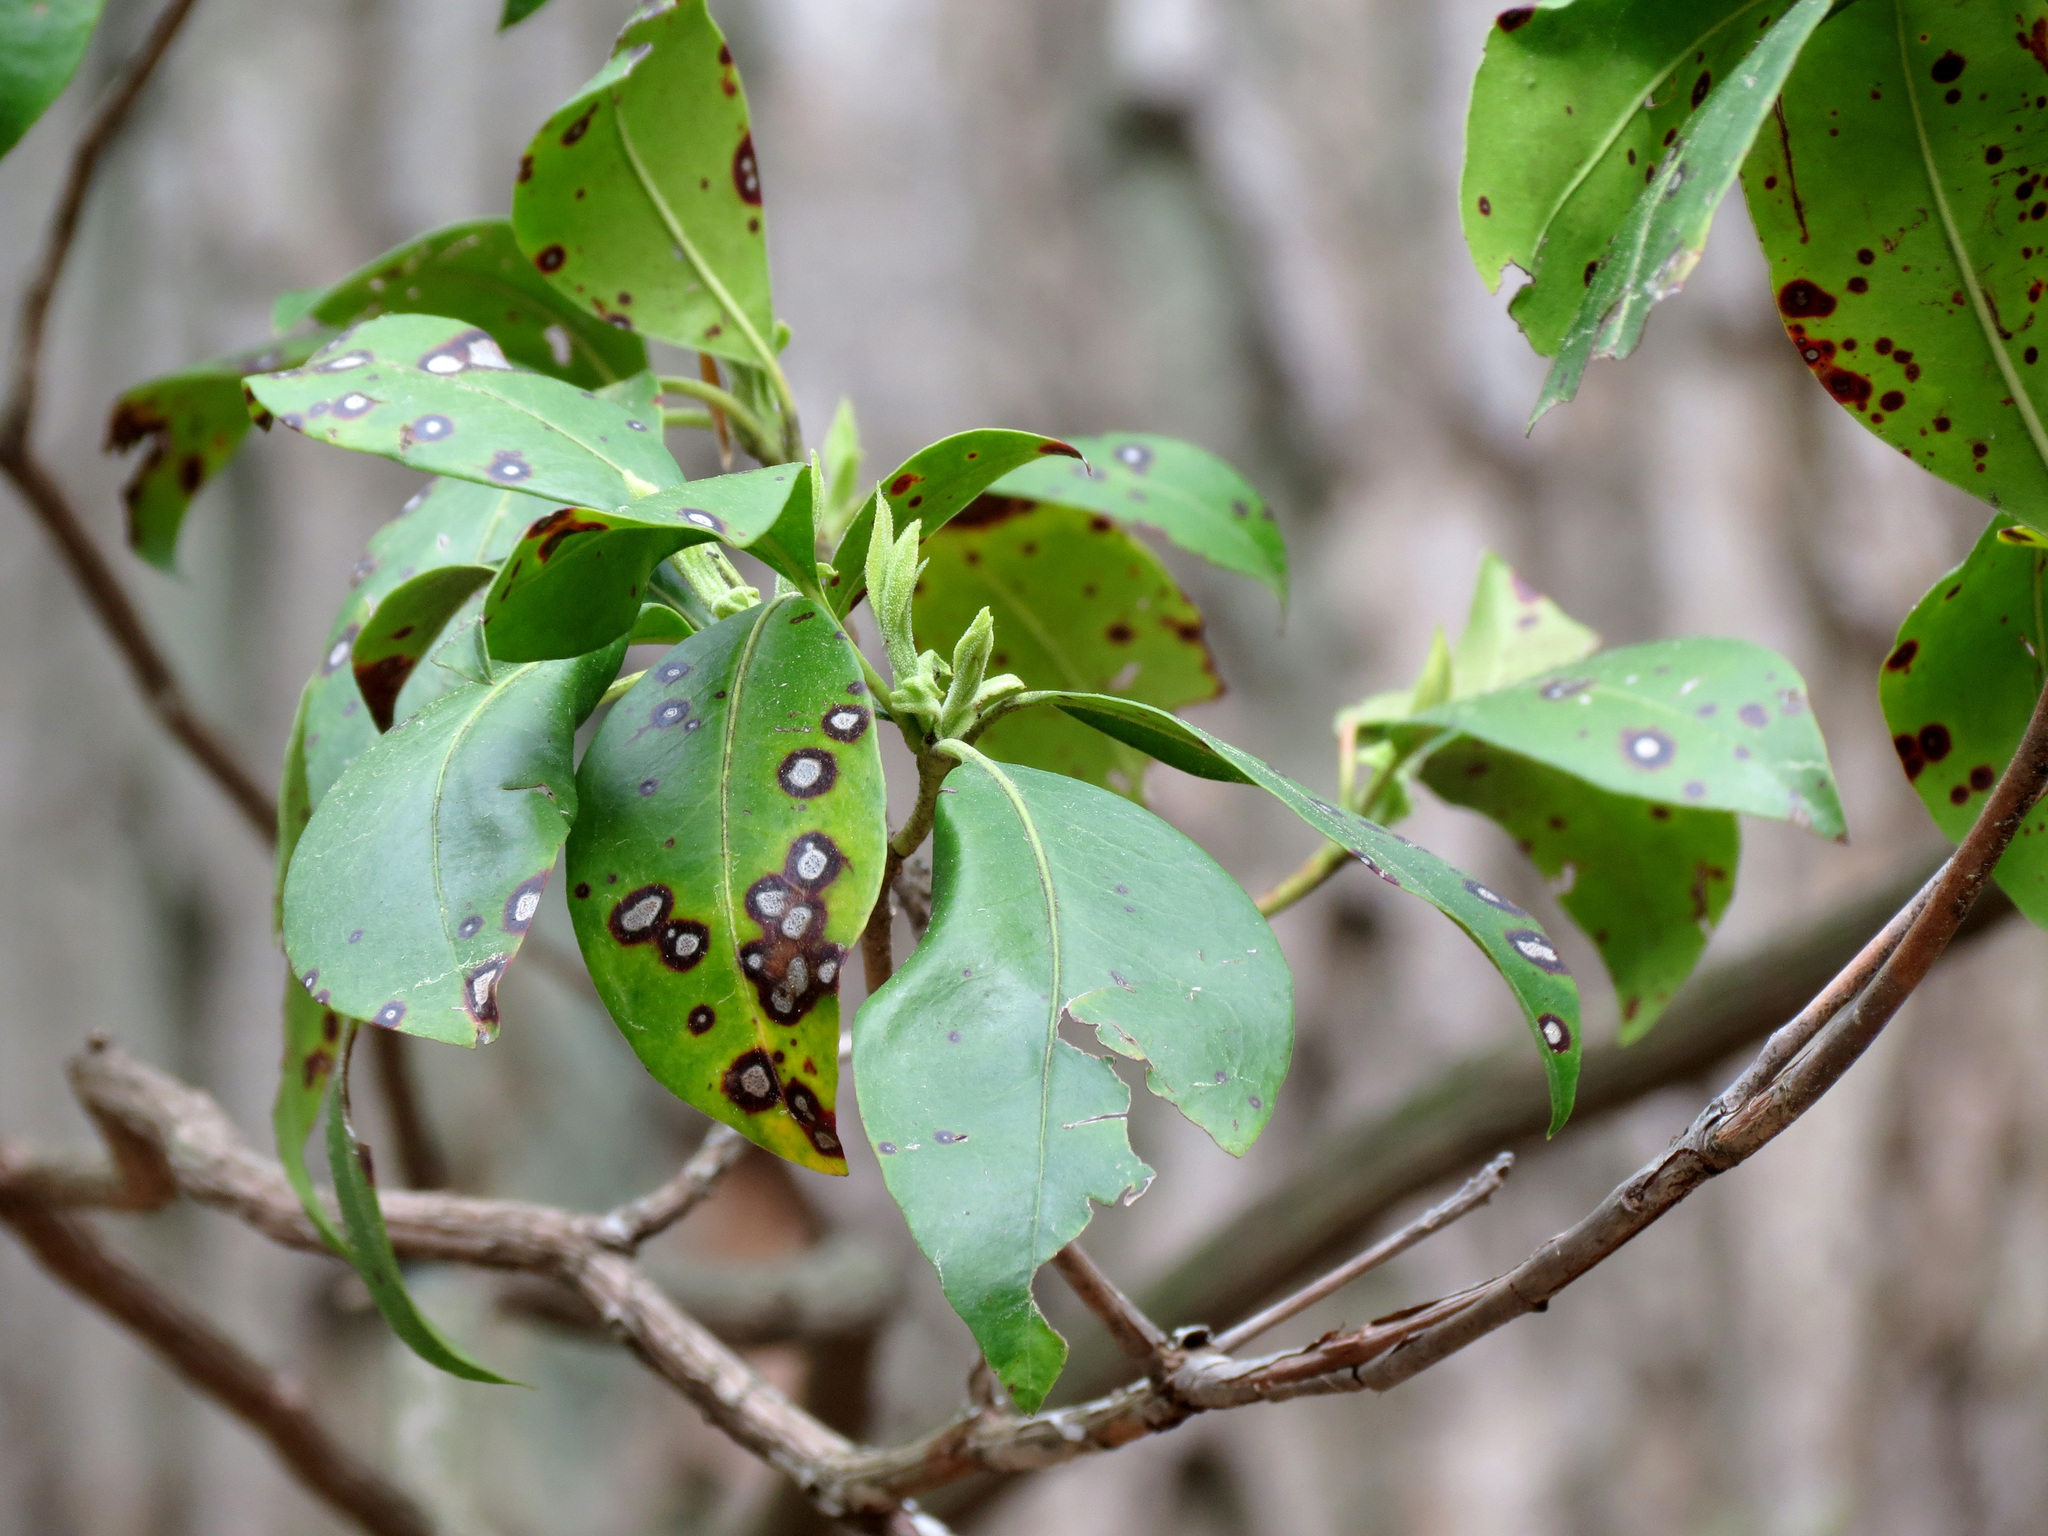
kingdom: Plantae
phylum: Tracheophyta
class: Magnoliopsida
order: Ericales
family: Ericaceae
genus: Kalmia
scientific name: Kalmia latifolia
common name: Mountain-laurel
